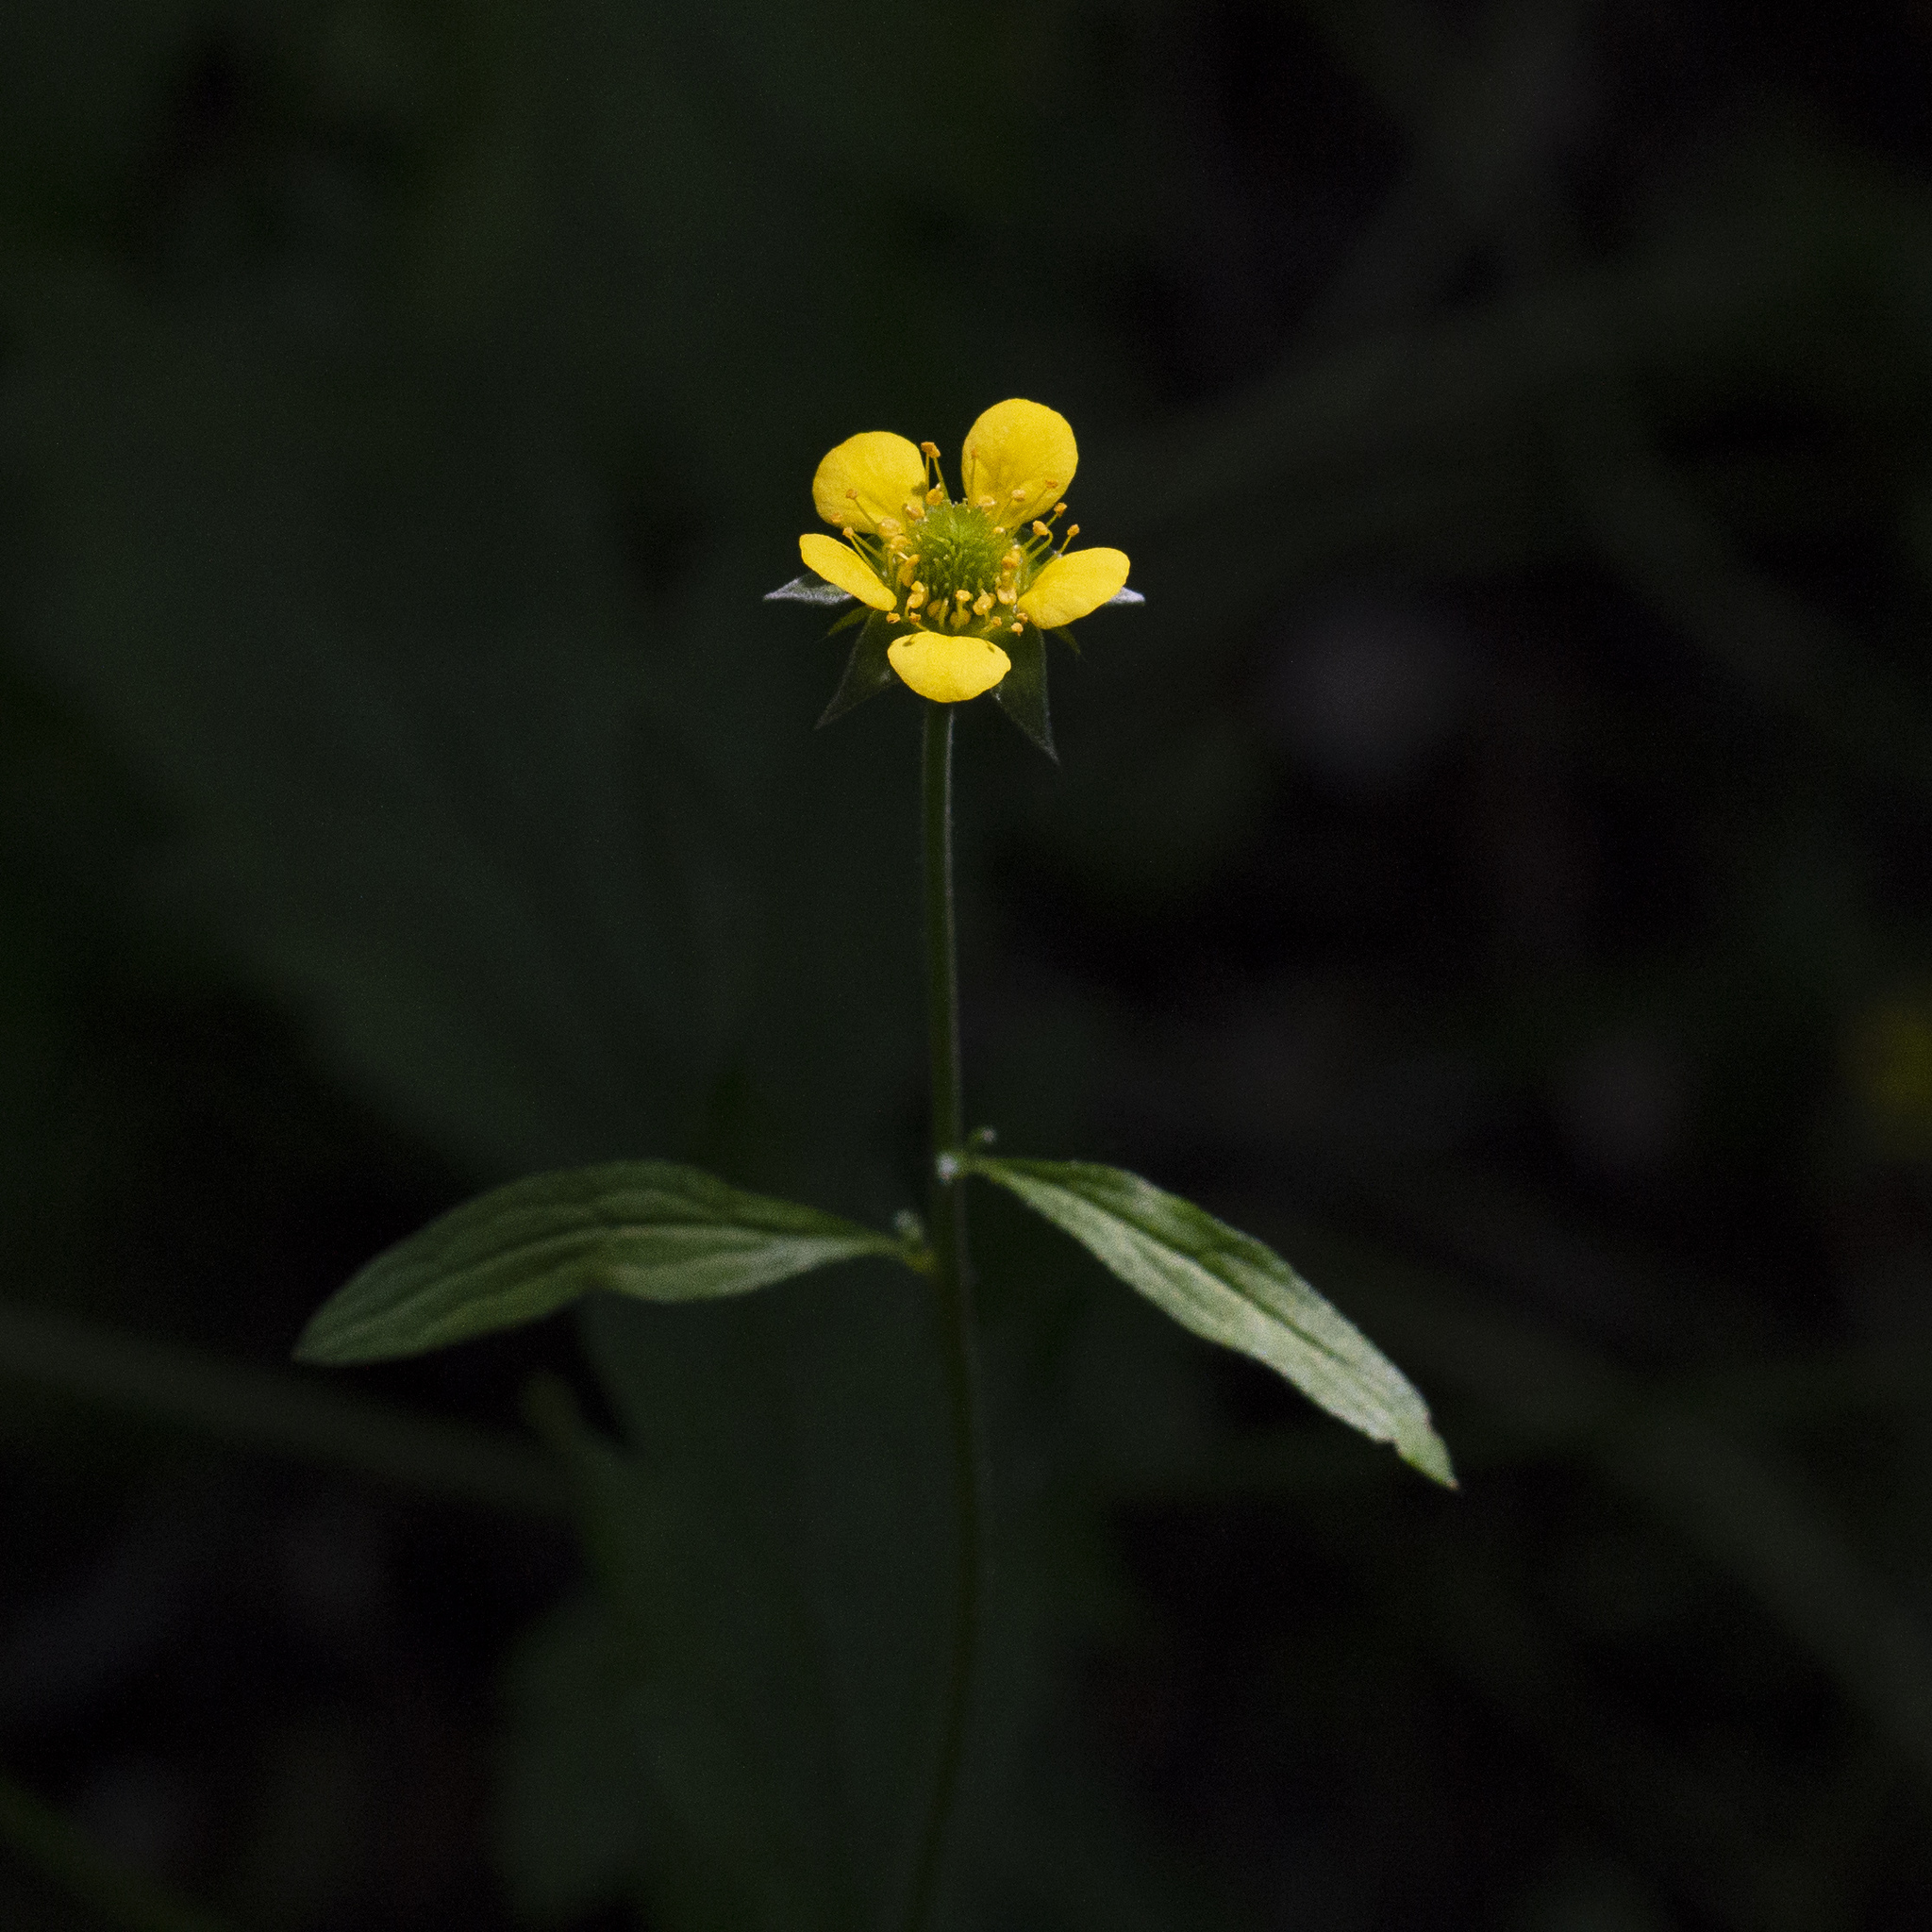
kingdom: Plantae
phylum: Tracheophyta
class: Magnoliopsida
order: Rosales
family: Rosaceae
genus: Geum
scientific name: Geum urbanum
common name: Wood avens
